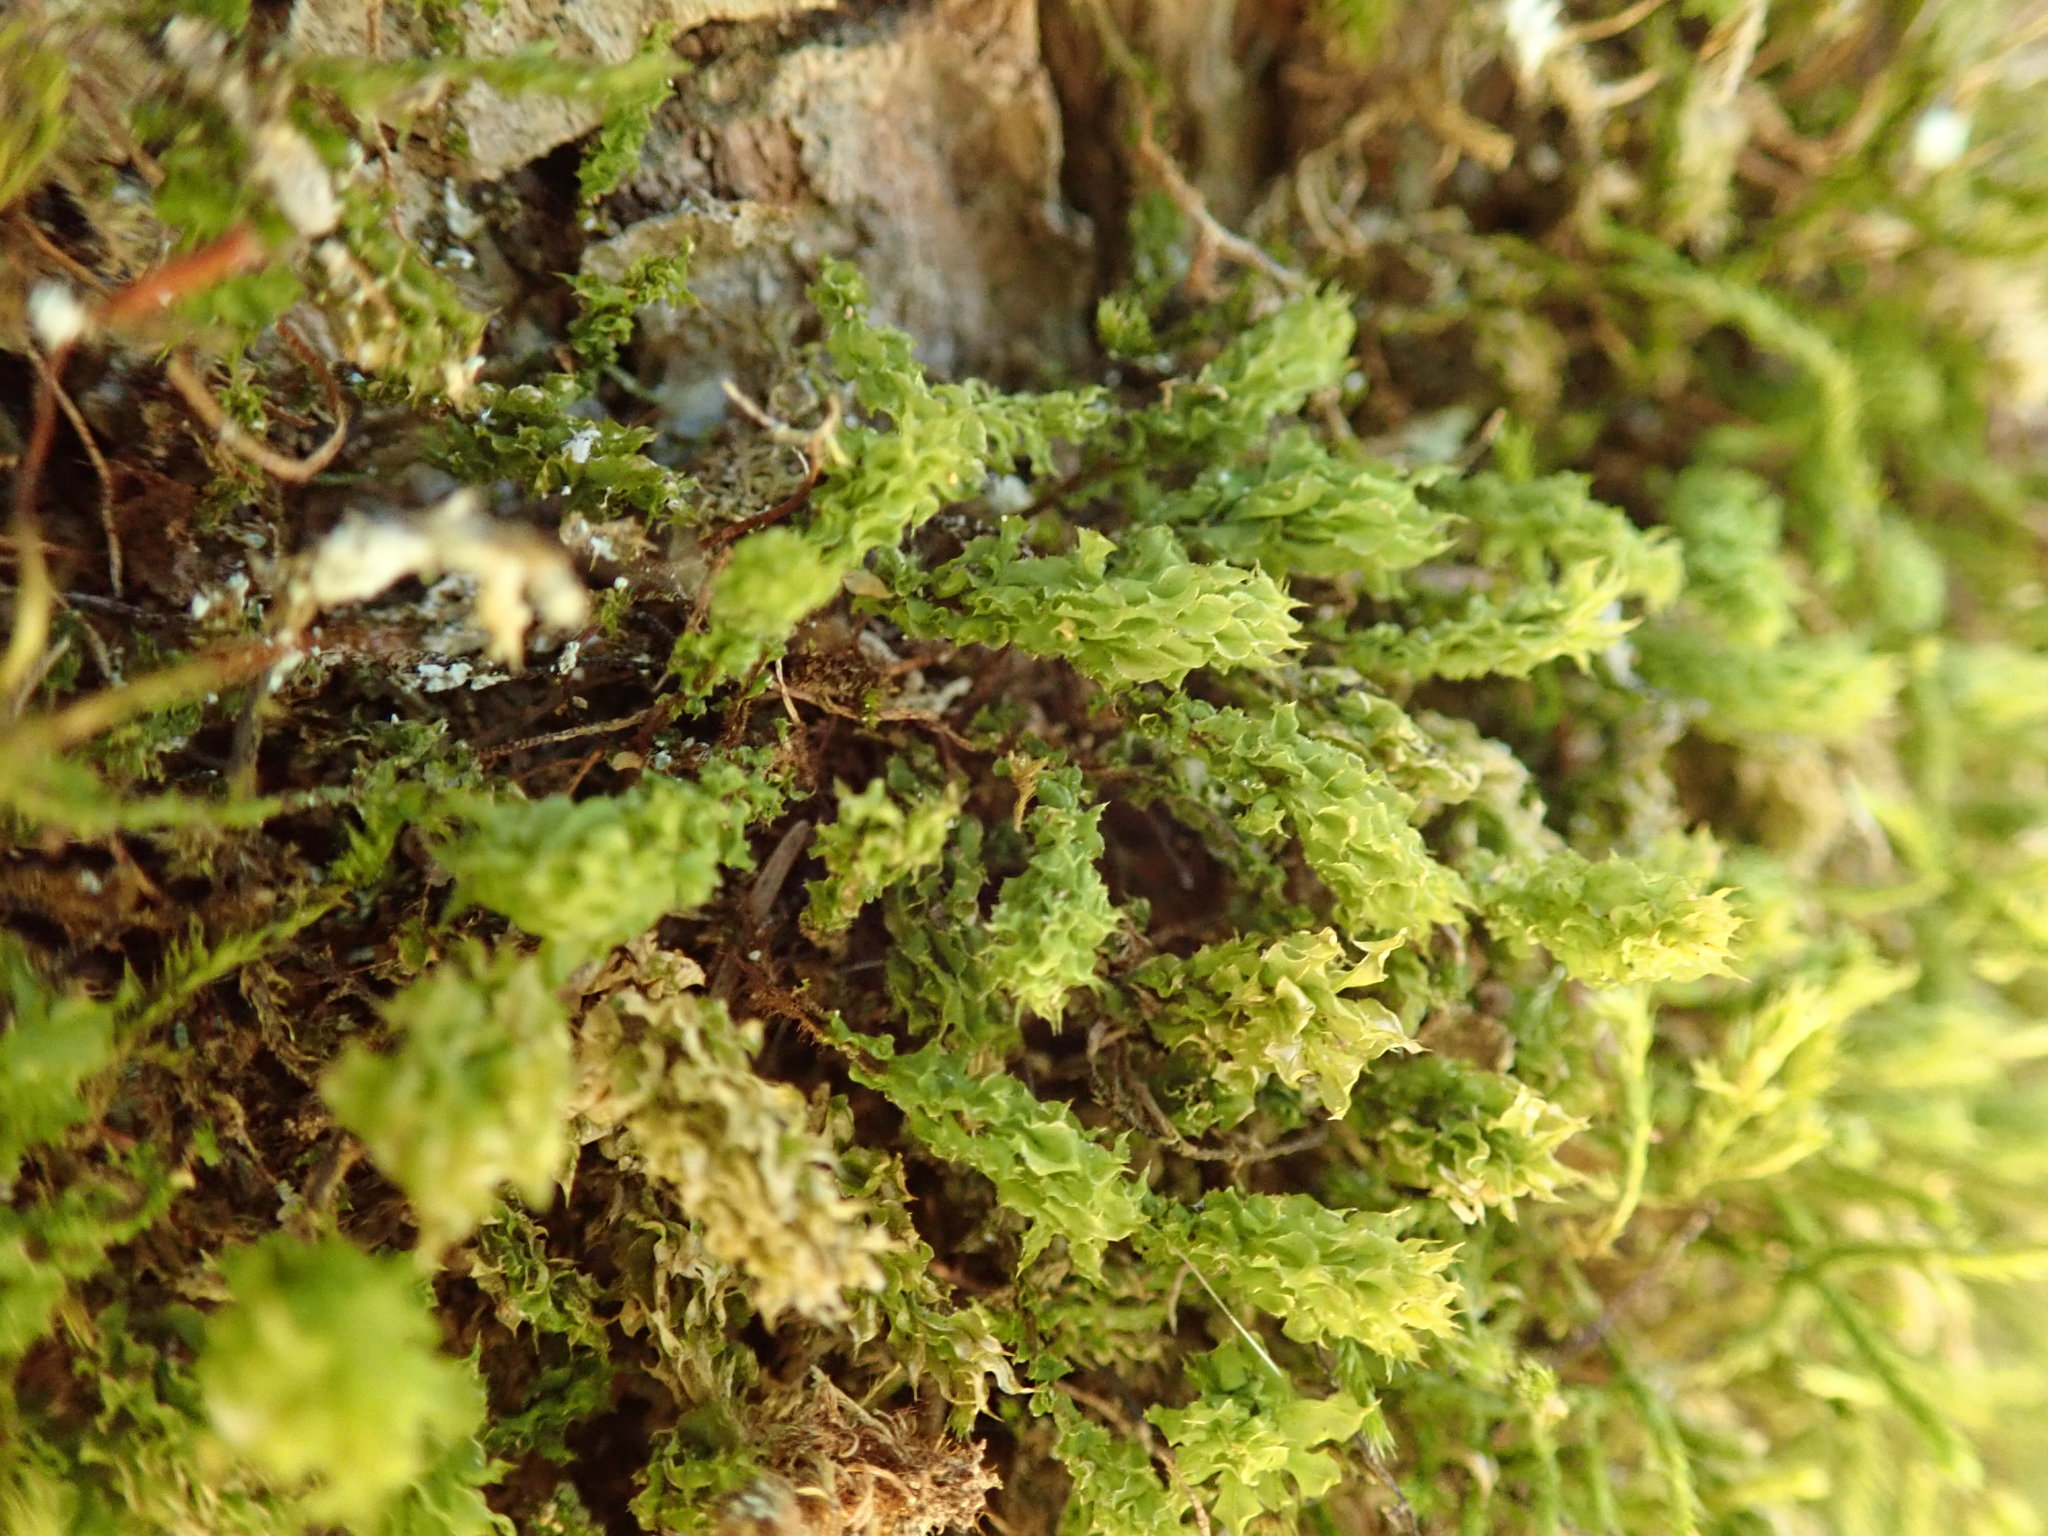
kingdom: Plantae
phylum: Bryophyta
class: Bryopsida
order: Bryales
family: Mniaceae
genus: Plagiomnium
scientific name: Plagiomnium venustum
